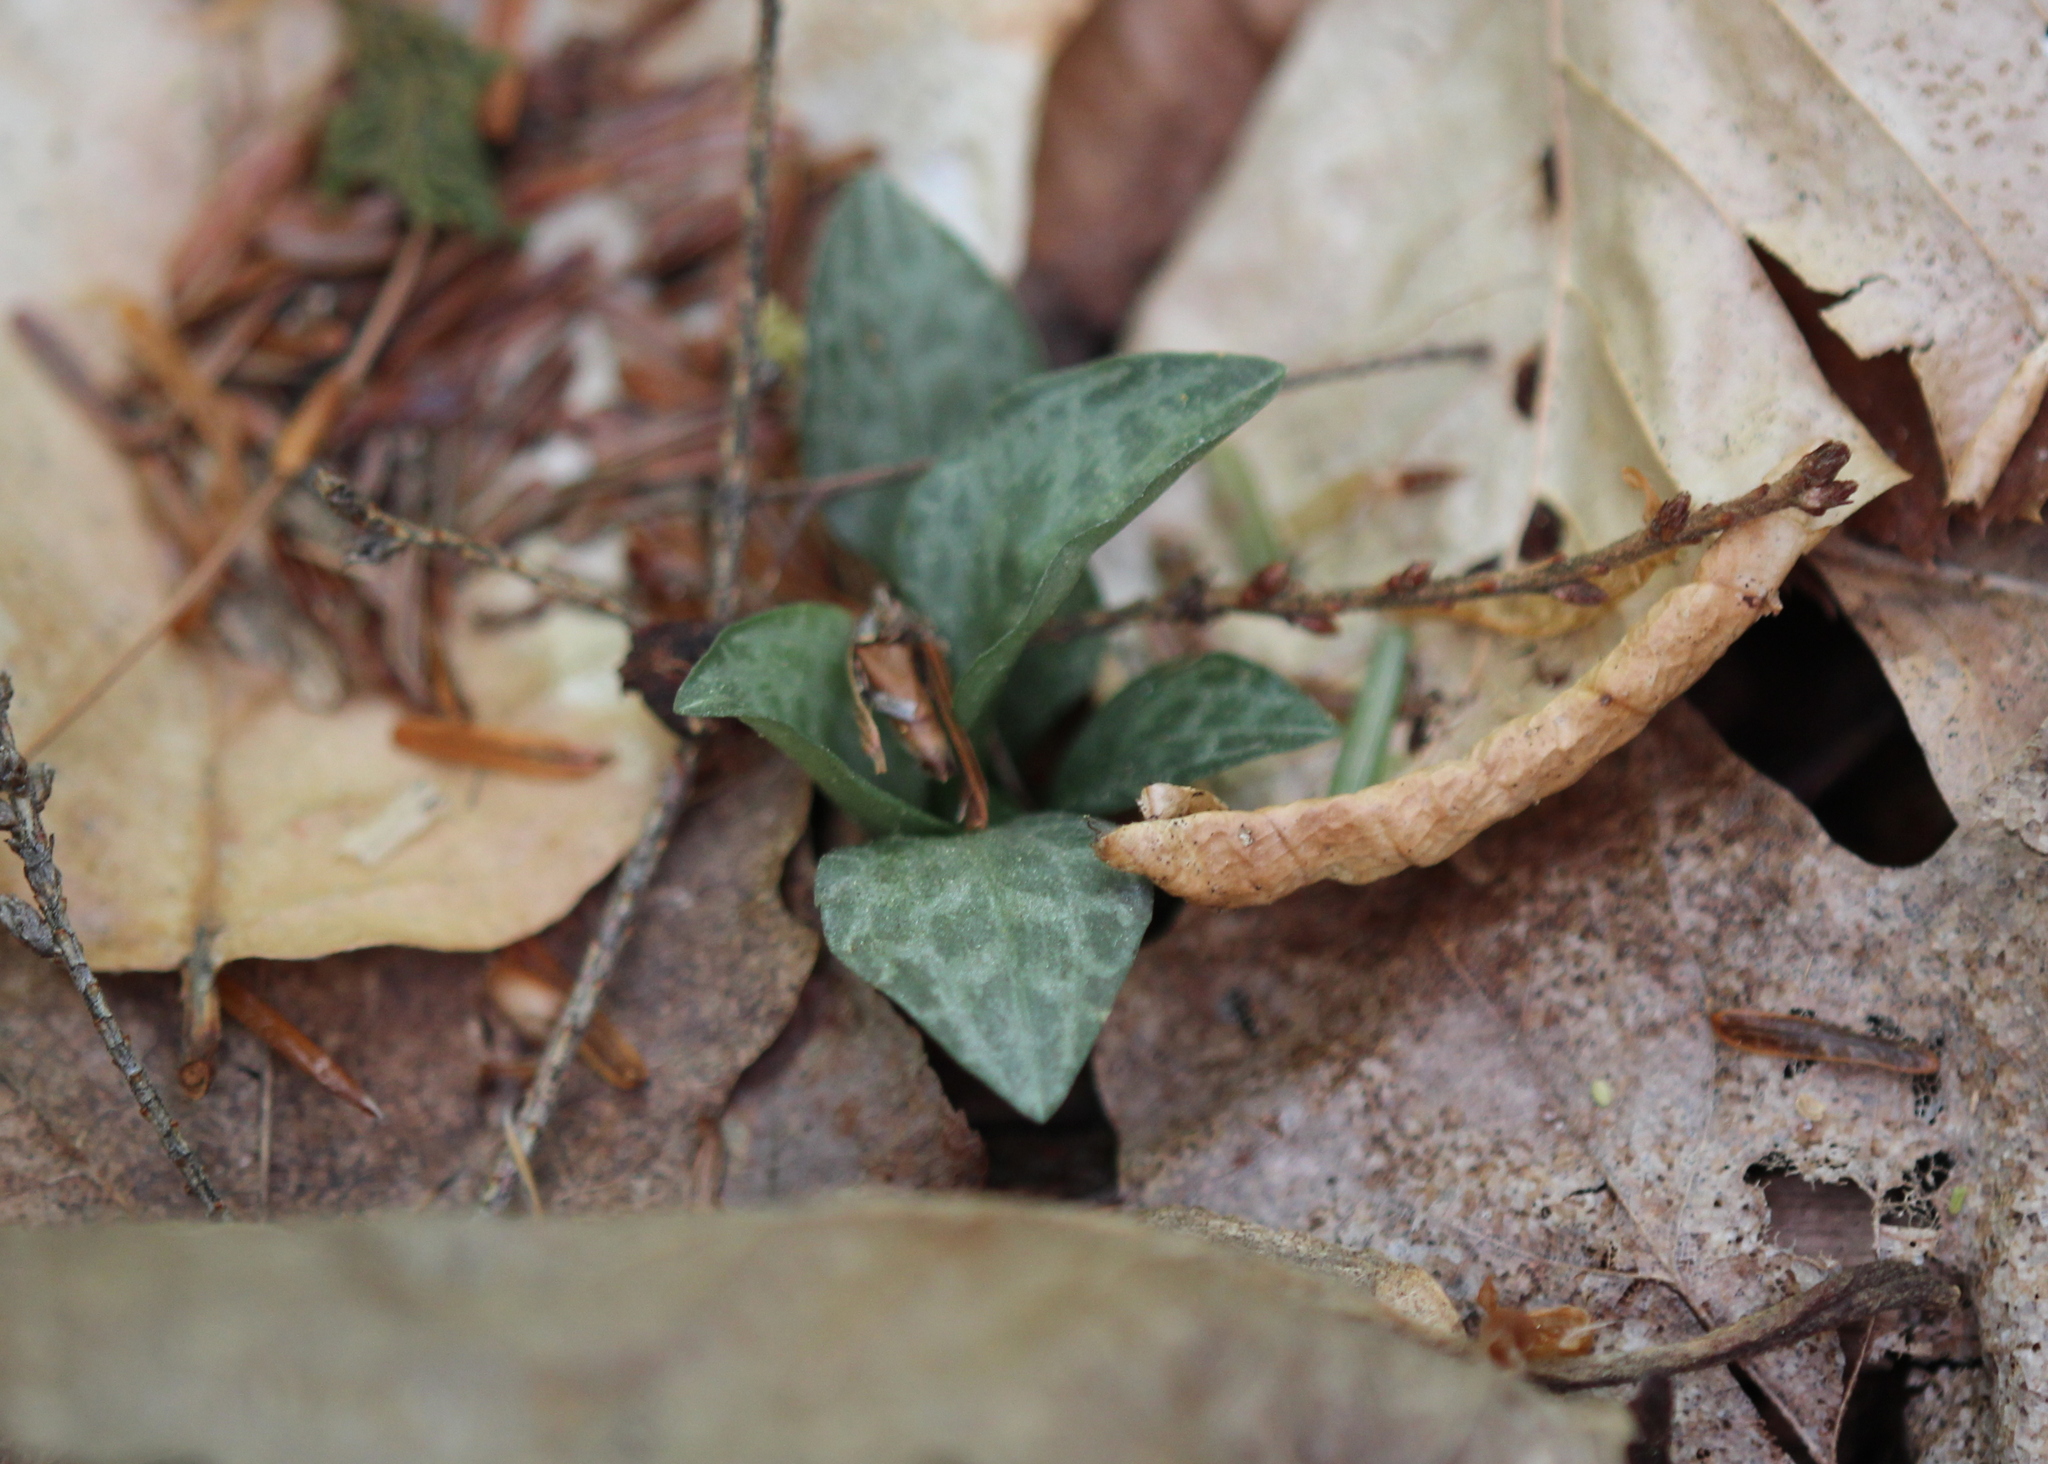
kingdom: Plantae
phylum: Tracheophyta
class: Liliopsida
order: Asparagales
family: Orchidaceae
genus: Goodyera
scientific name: Goodyera tesselata
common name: Checkered rattlesnake-plantain
